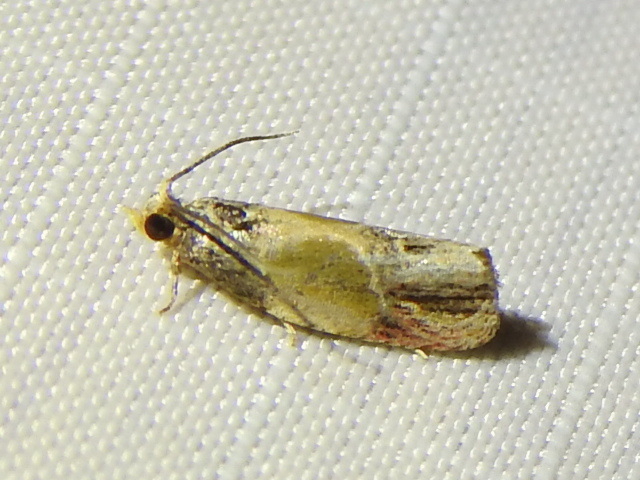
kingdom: Animalia
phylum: Arthropoda
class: Insecta
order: Lepidoptera
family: Tortricidae
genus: Eumarozia
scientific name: Eumarozia malachitana
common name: Sculptured moth
